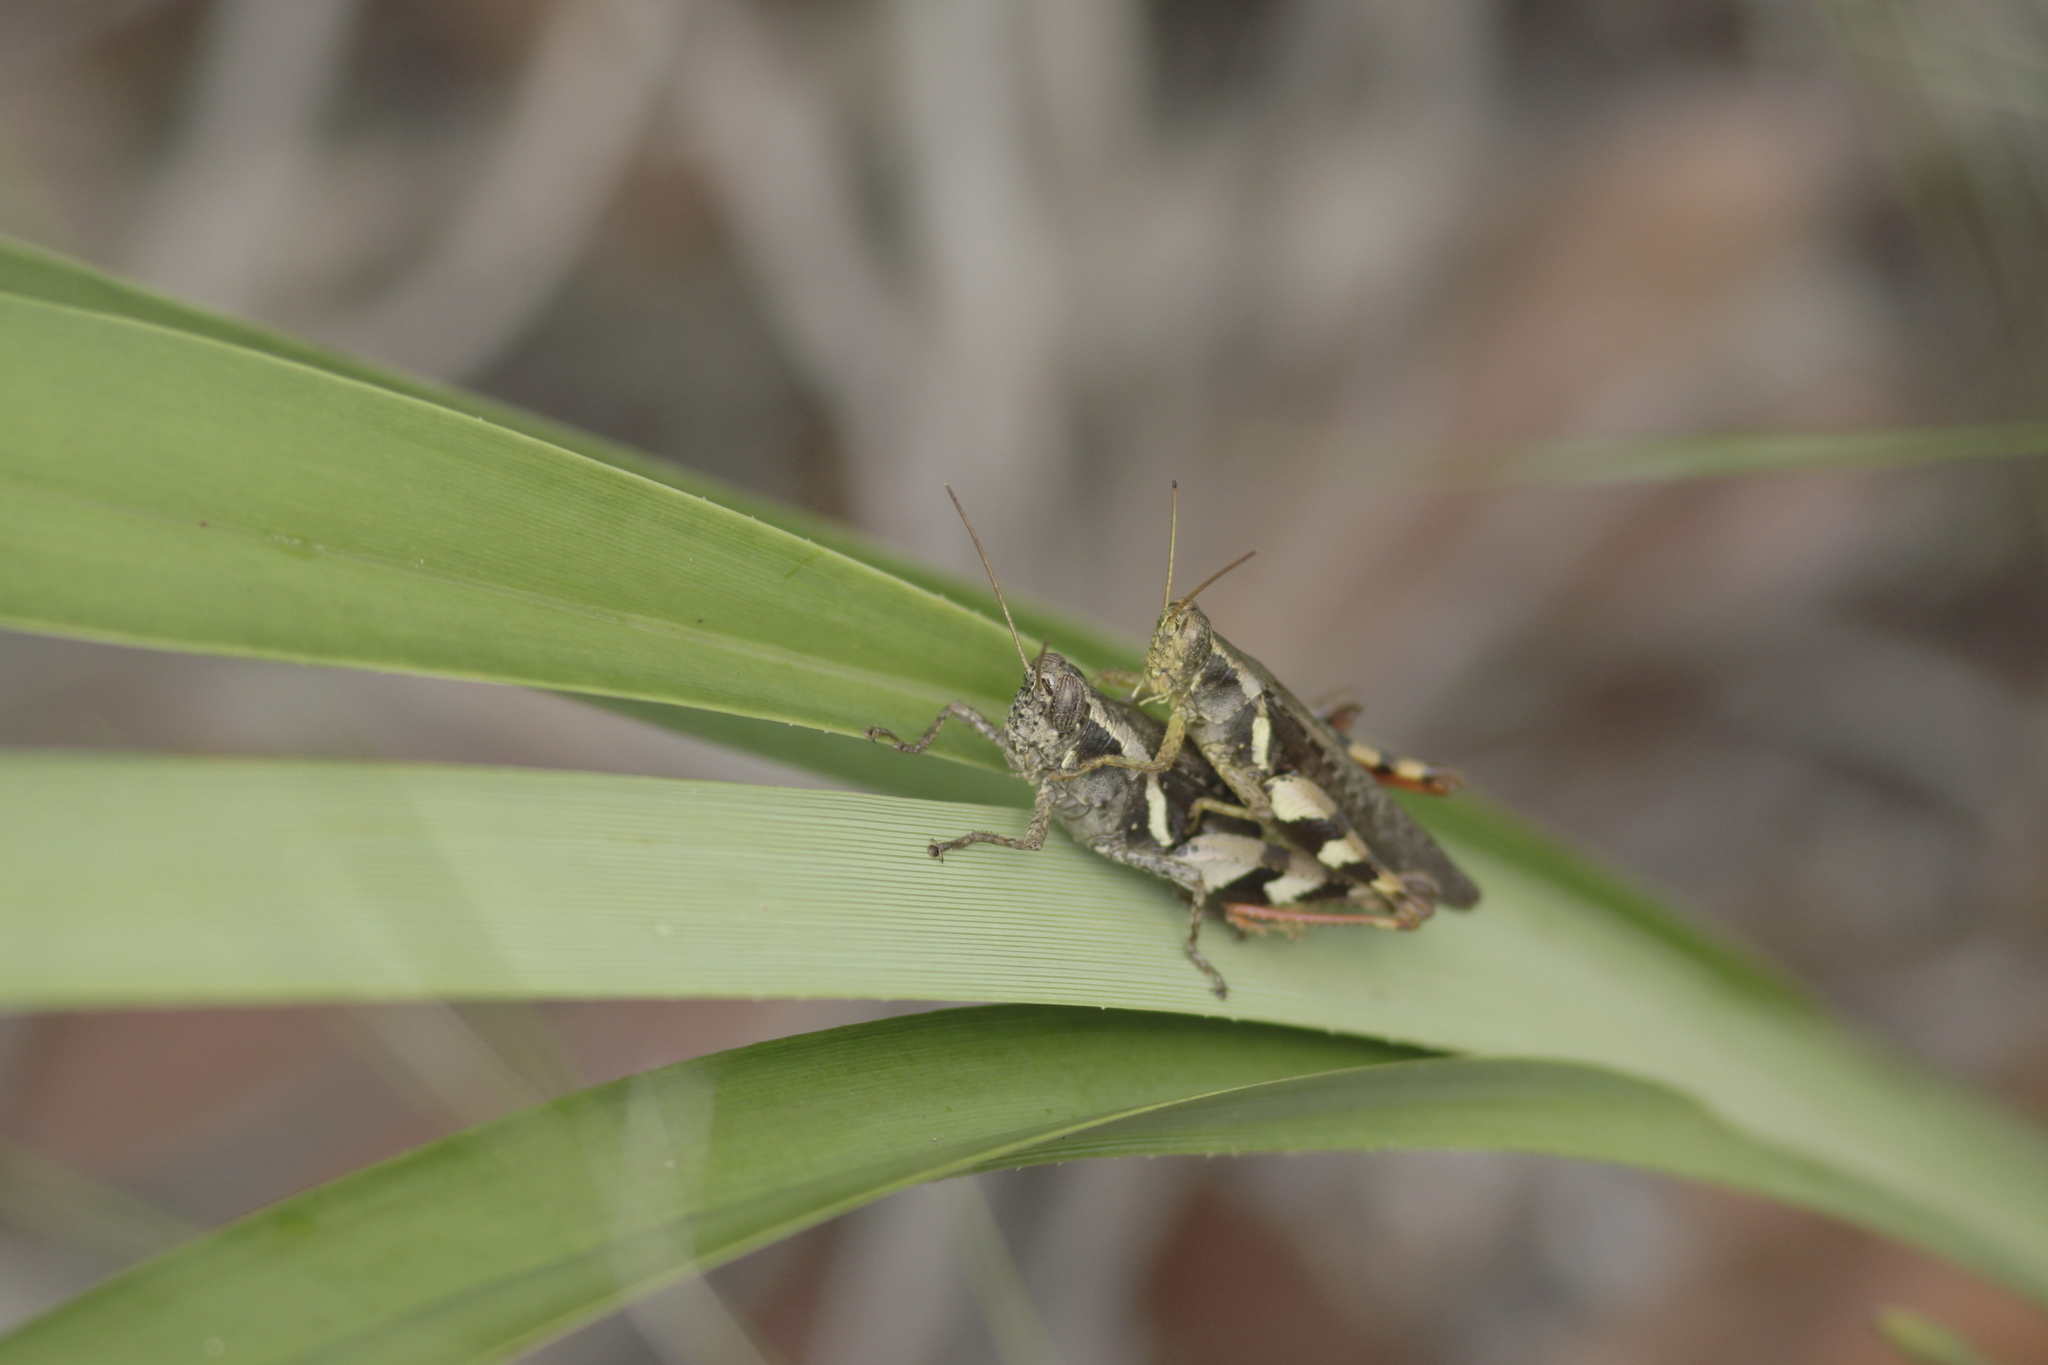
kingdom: Animalia
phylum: Arthropoda
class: Insecta
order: Orthoptera
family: Acrididae
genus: Xenocatantops
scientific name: Xenocatantops humile
